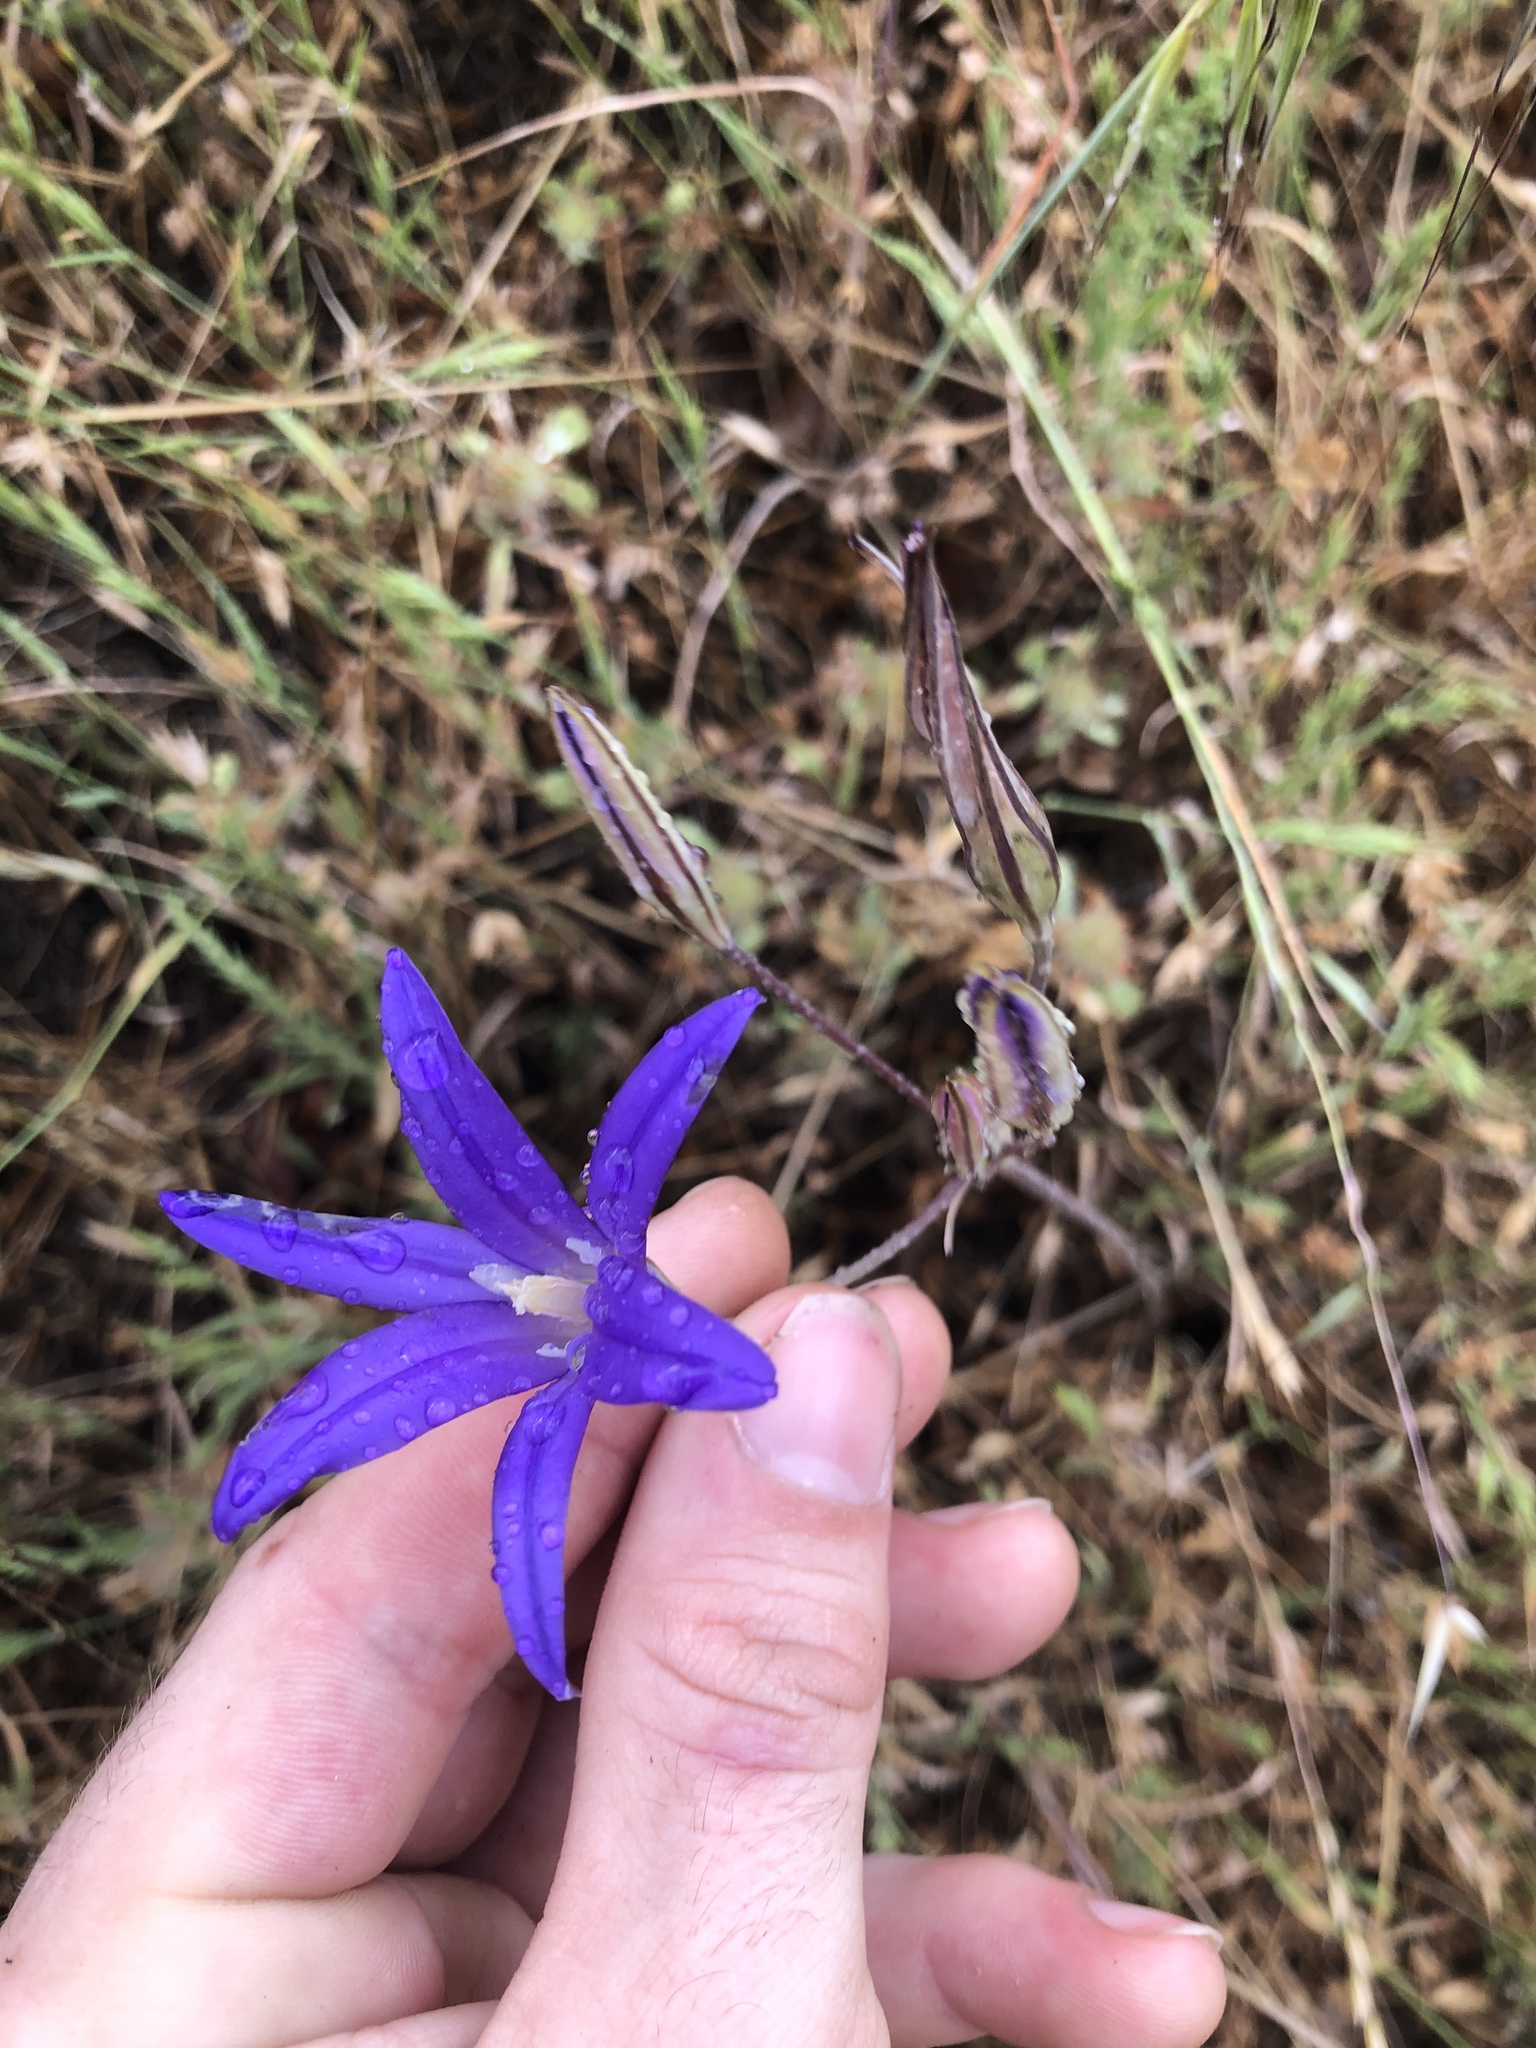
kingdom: Plantae
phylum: Tracheophyta
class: Liliopsida
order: Asparagales
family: Asparagaceae
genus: Brodiaea
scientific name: Brodiaea elegans
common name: Elegant cluster-lily
